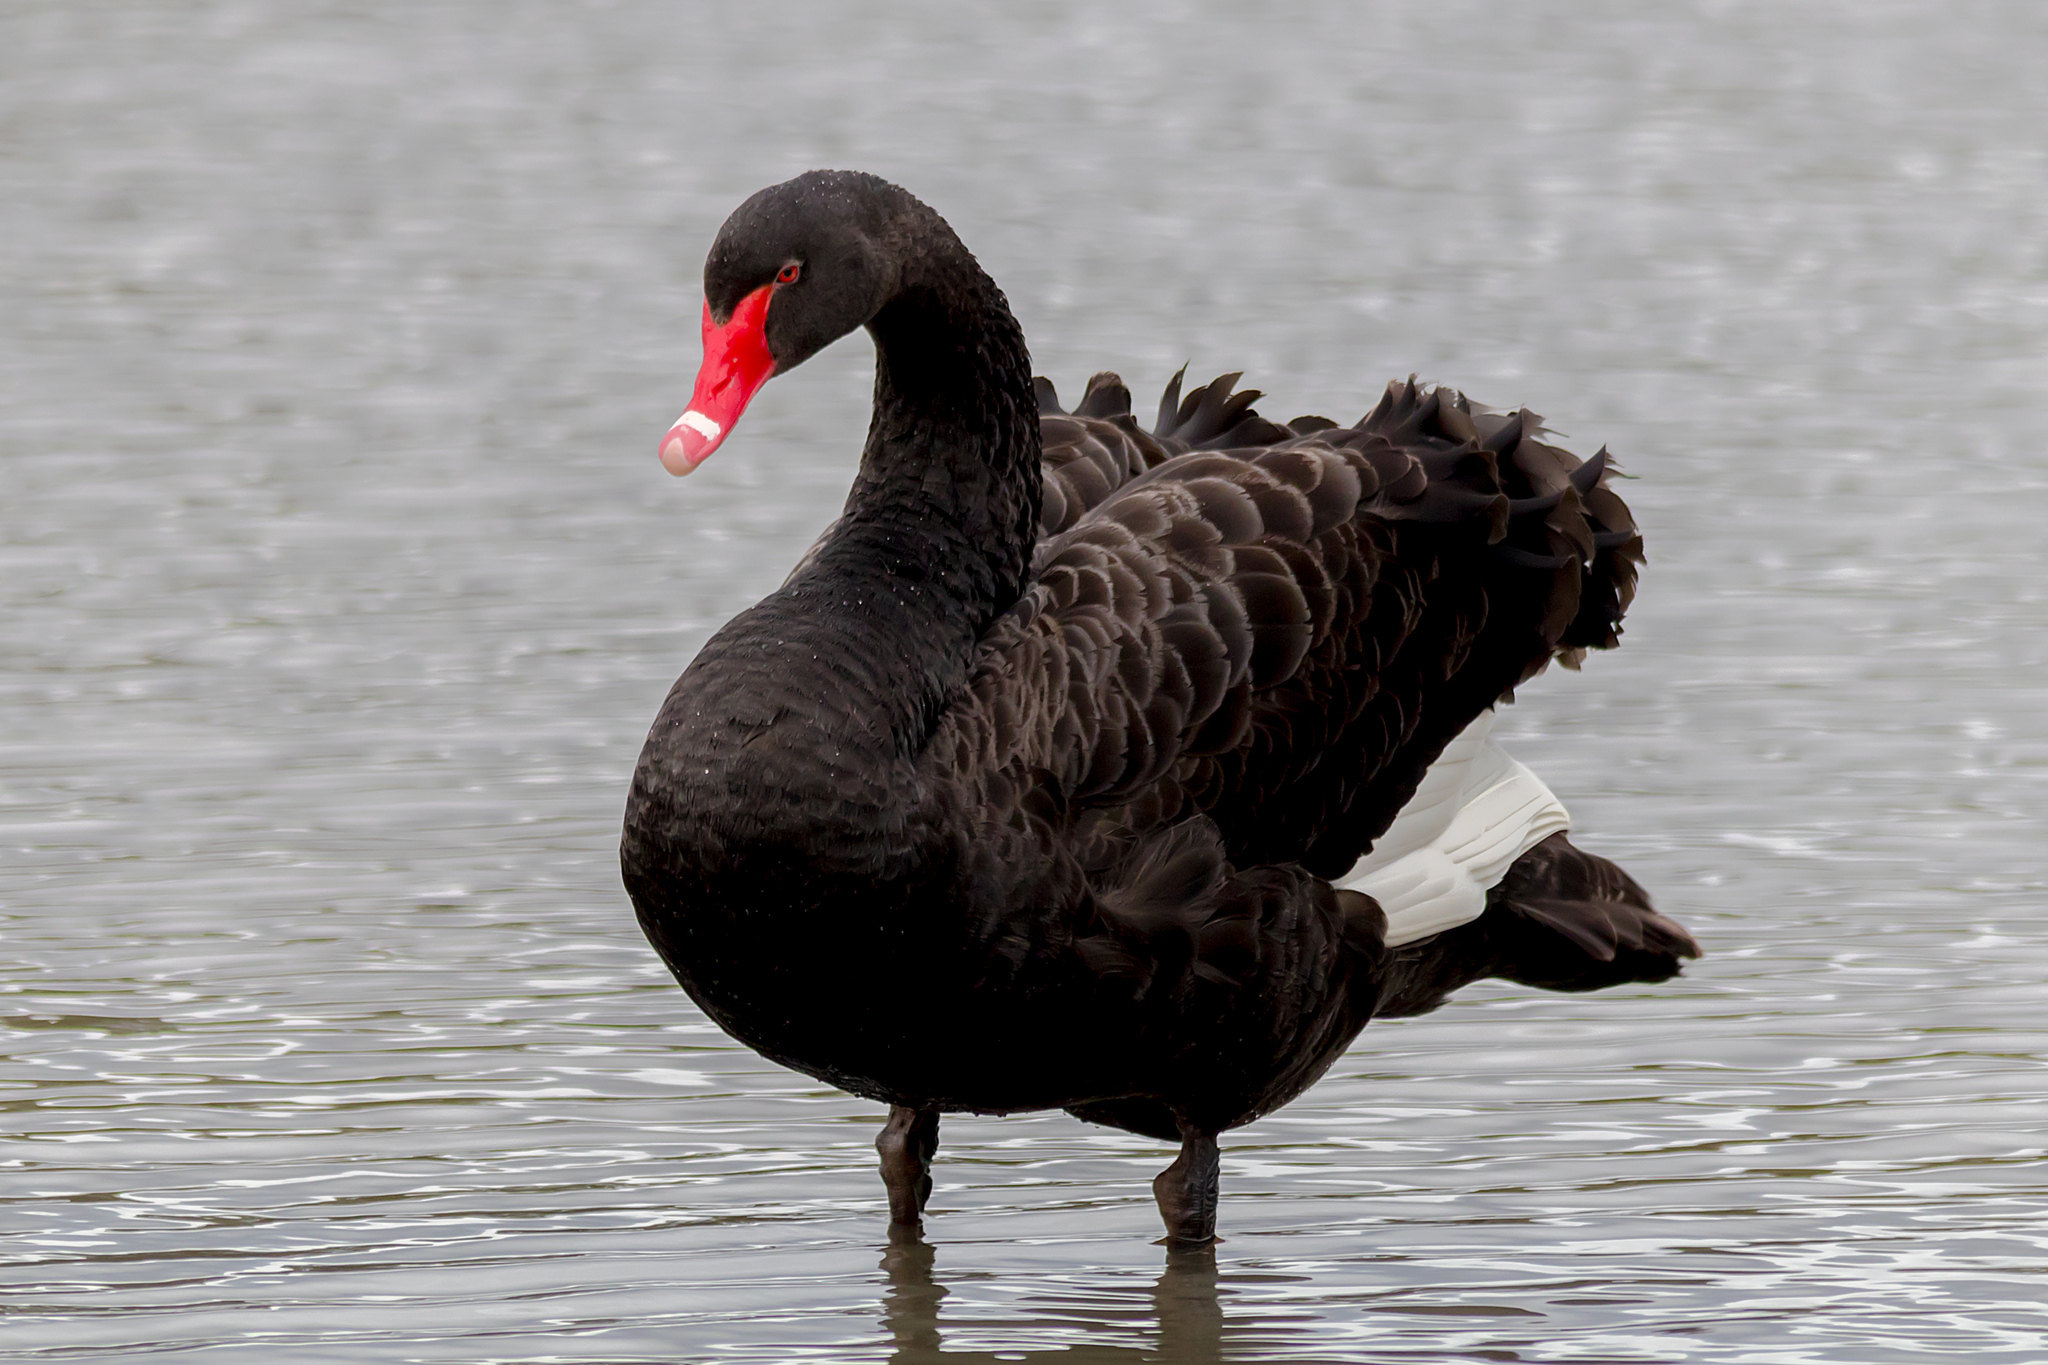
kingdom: Animalia
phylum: Chordata
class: Aves
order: Anseriformes
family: Anatidae
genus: Cygnus
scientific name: Cygnus atratus
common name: Black swan
